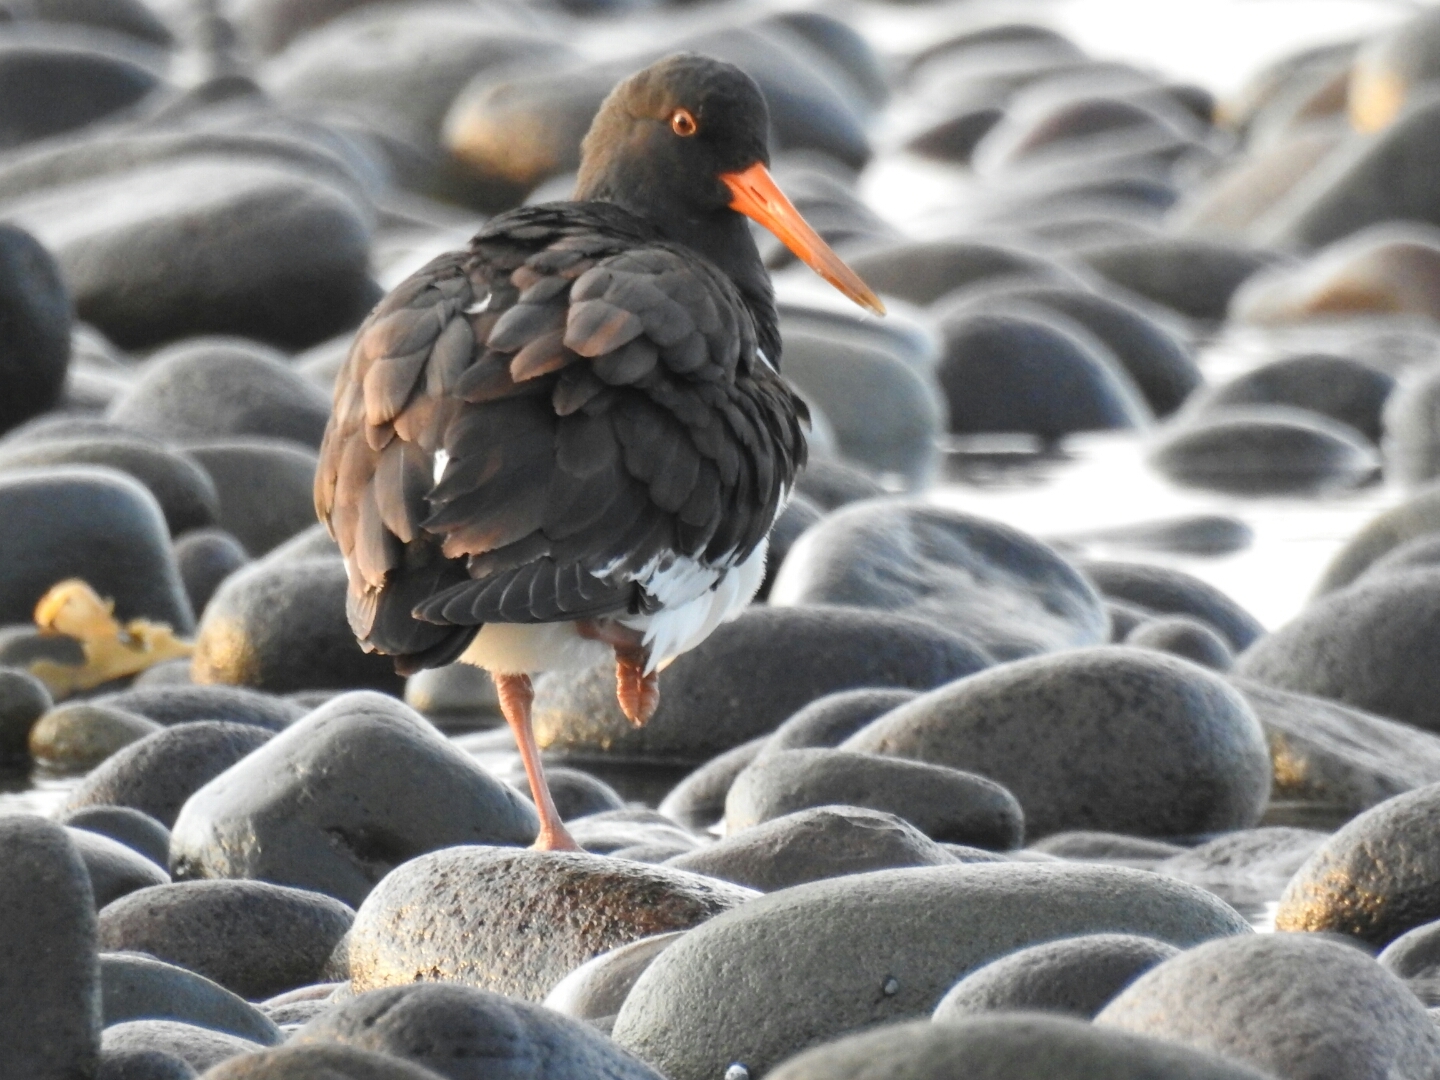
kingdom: Animalia
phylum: Chordata
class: Aves
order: Charadriiformes
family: Haematopodidae
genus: Haematopus
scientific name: Haematopus unicolor
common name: Variable oystercatcher
